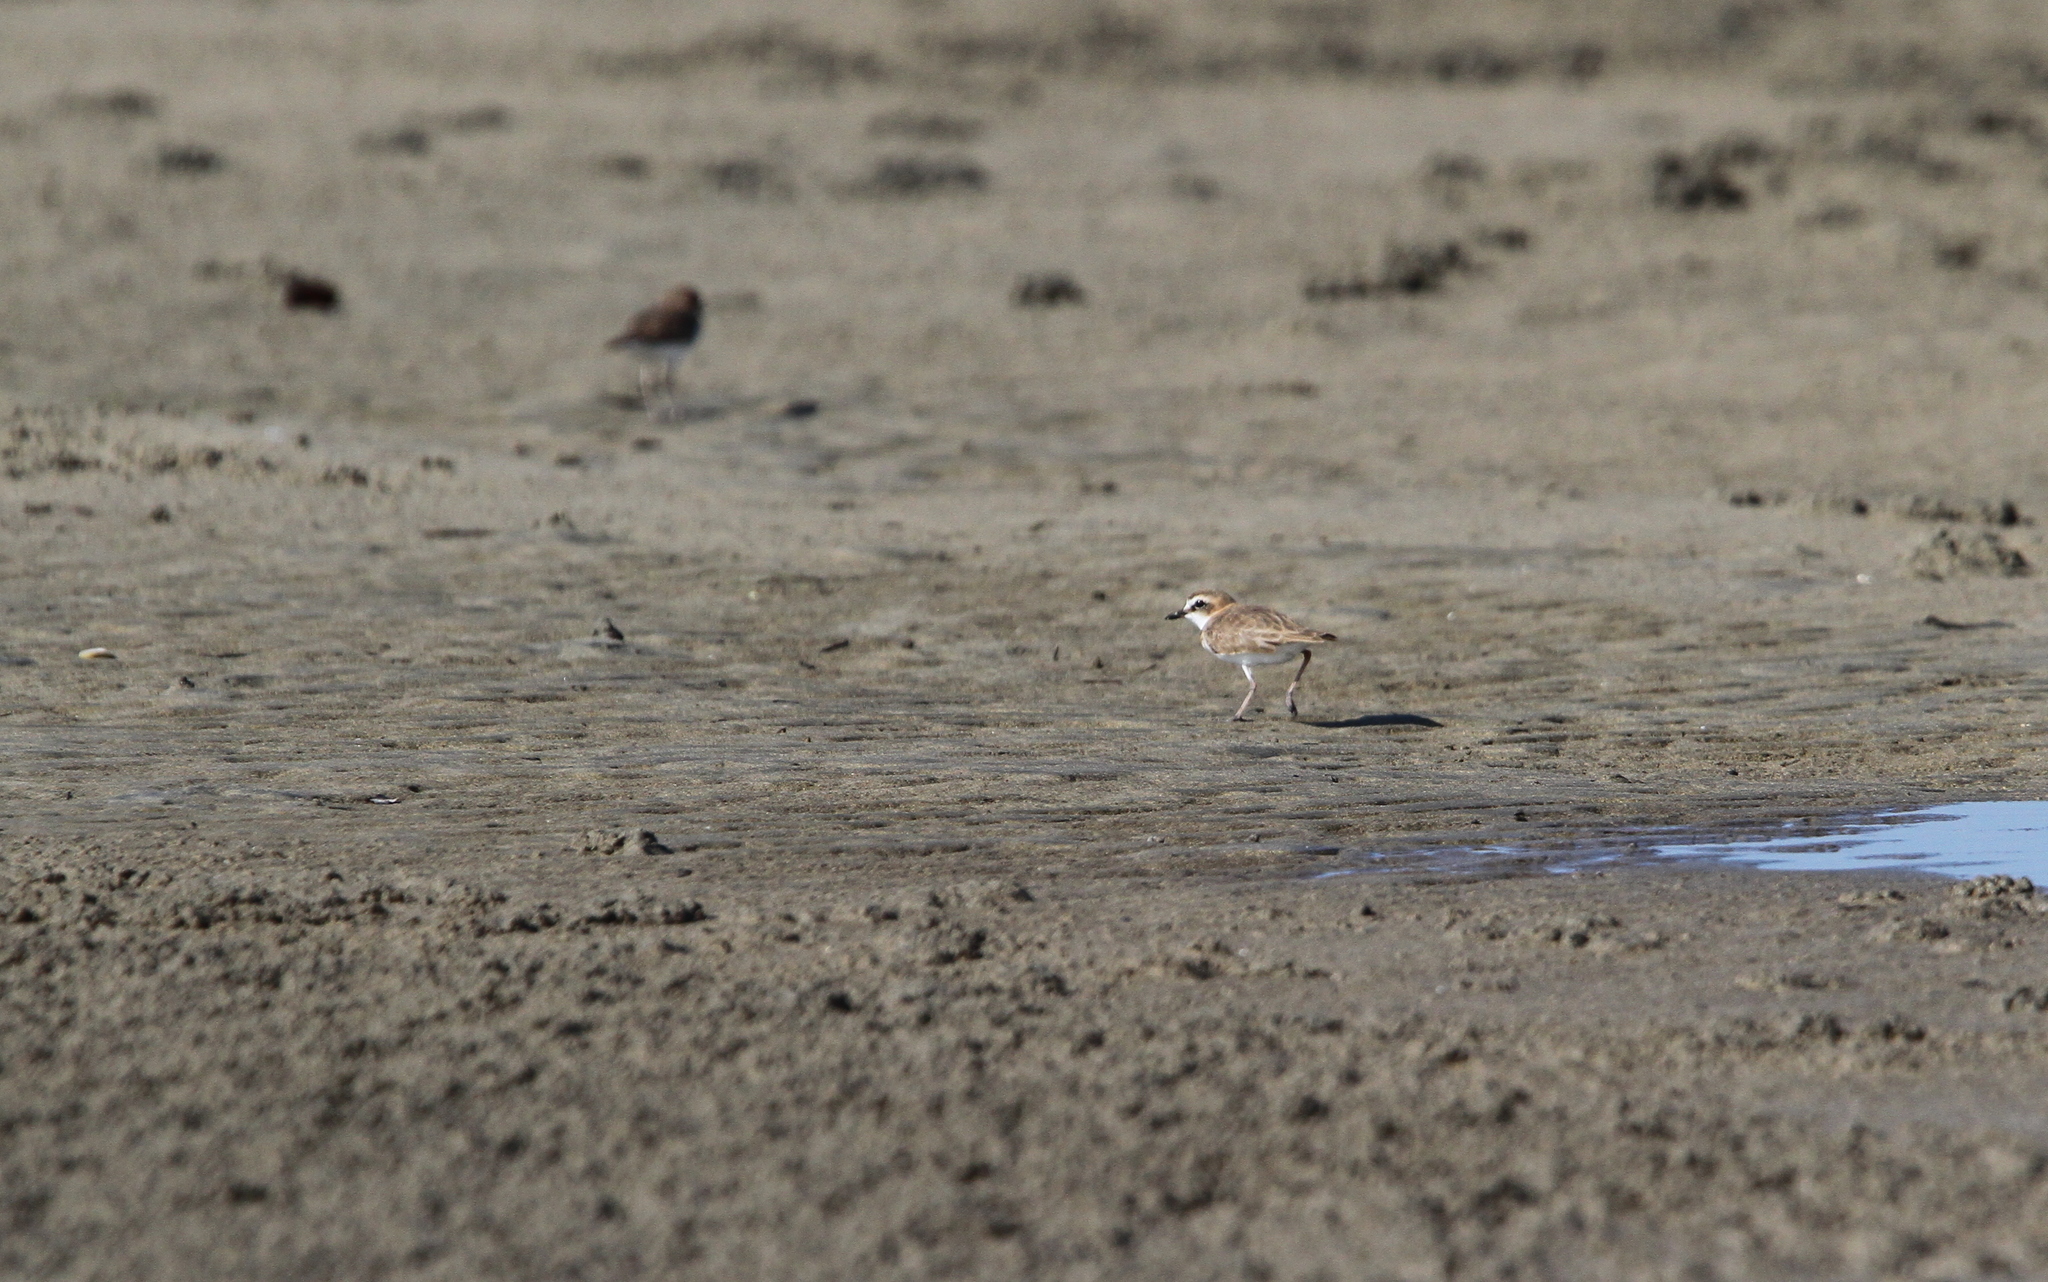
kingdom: Animalia
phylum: Chordata
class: Aves
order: Charadriiformes
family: Charadriidae
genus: Anarhynchus
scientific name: Anarhynchus
